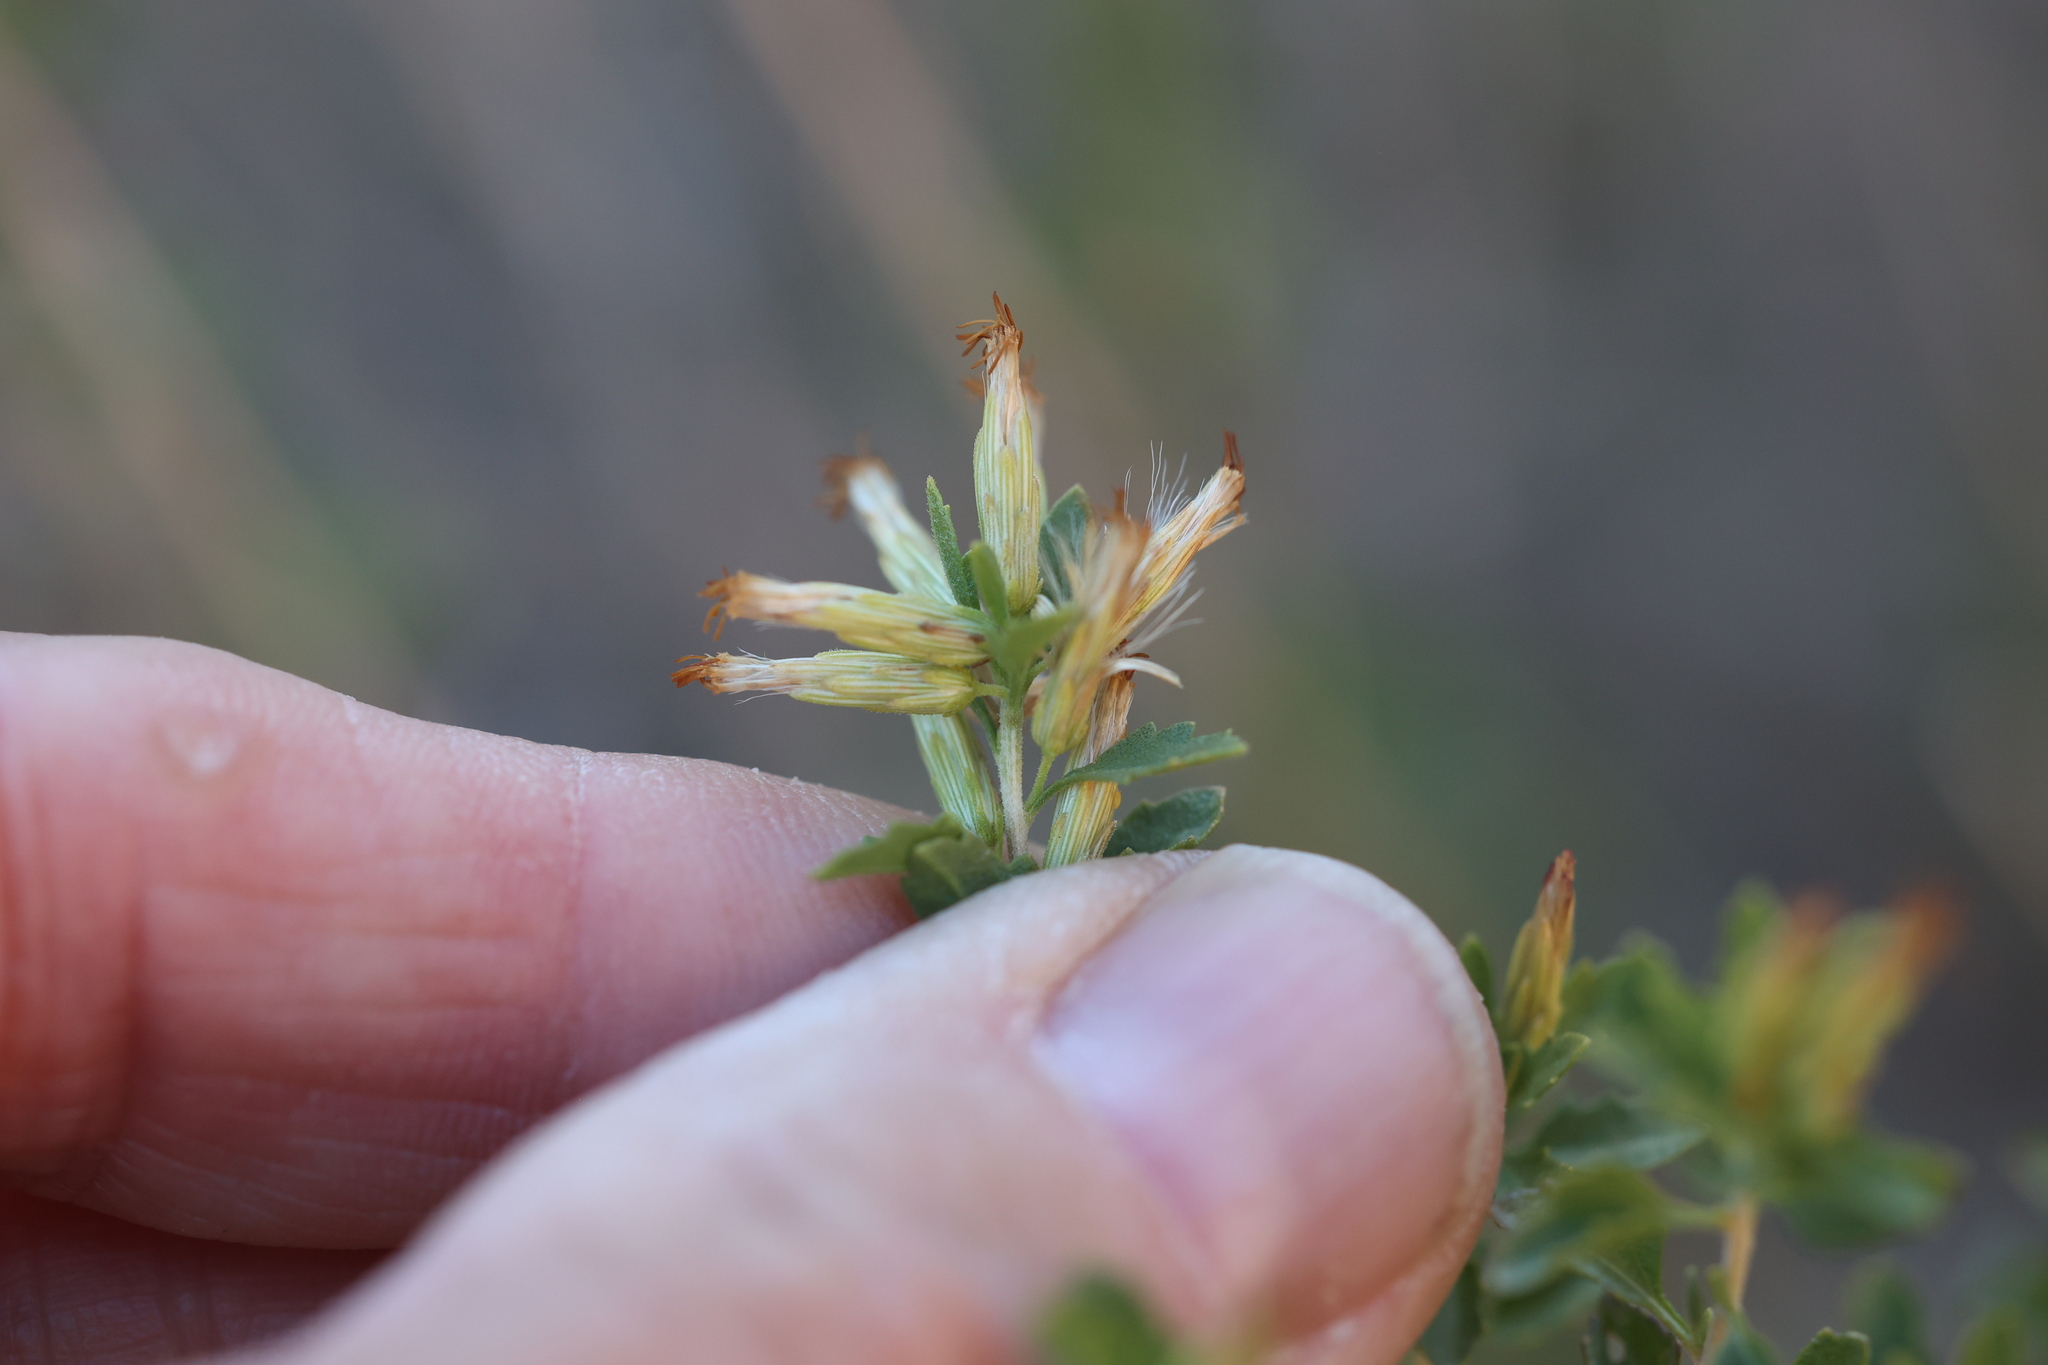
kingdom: Plantae
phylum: Tracheophyta
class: Magnoliopsida
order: Asterales
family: Asteraceae
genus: Brickellia
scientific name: Brickellia laciniata
